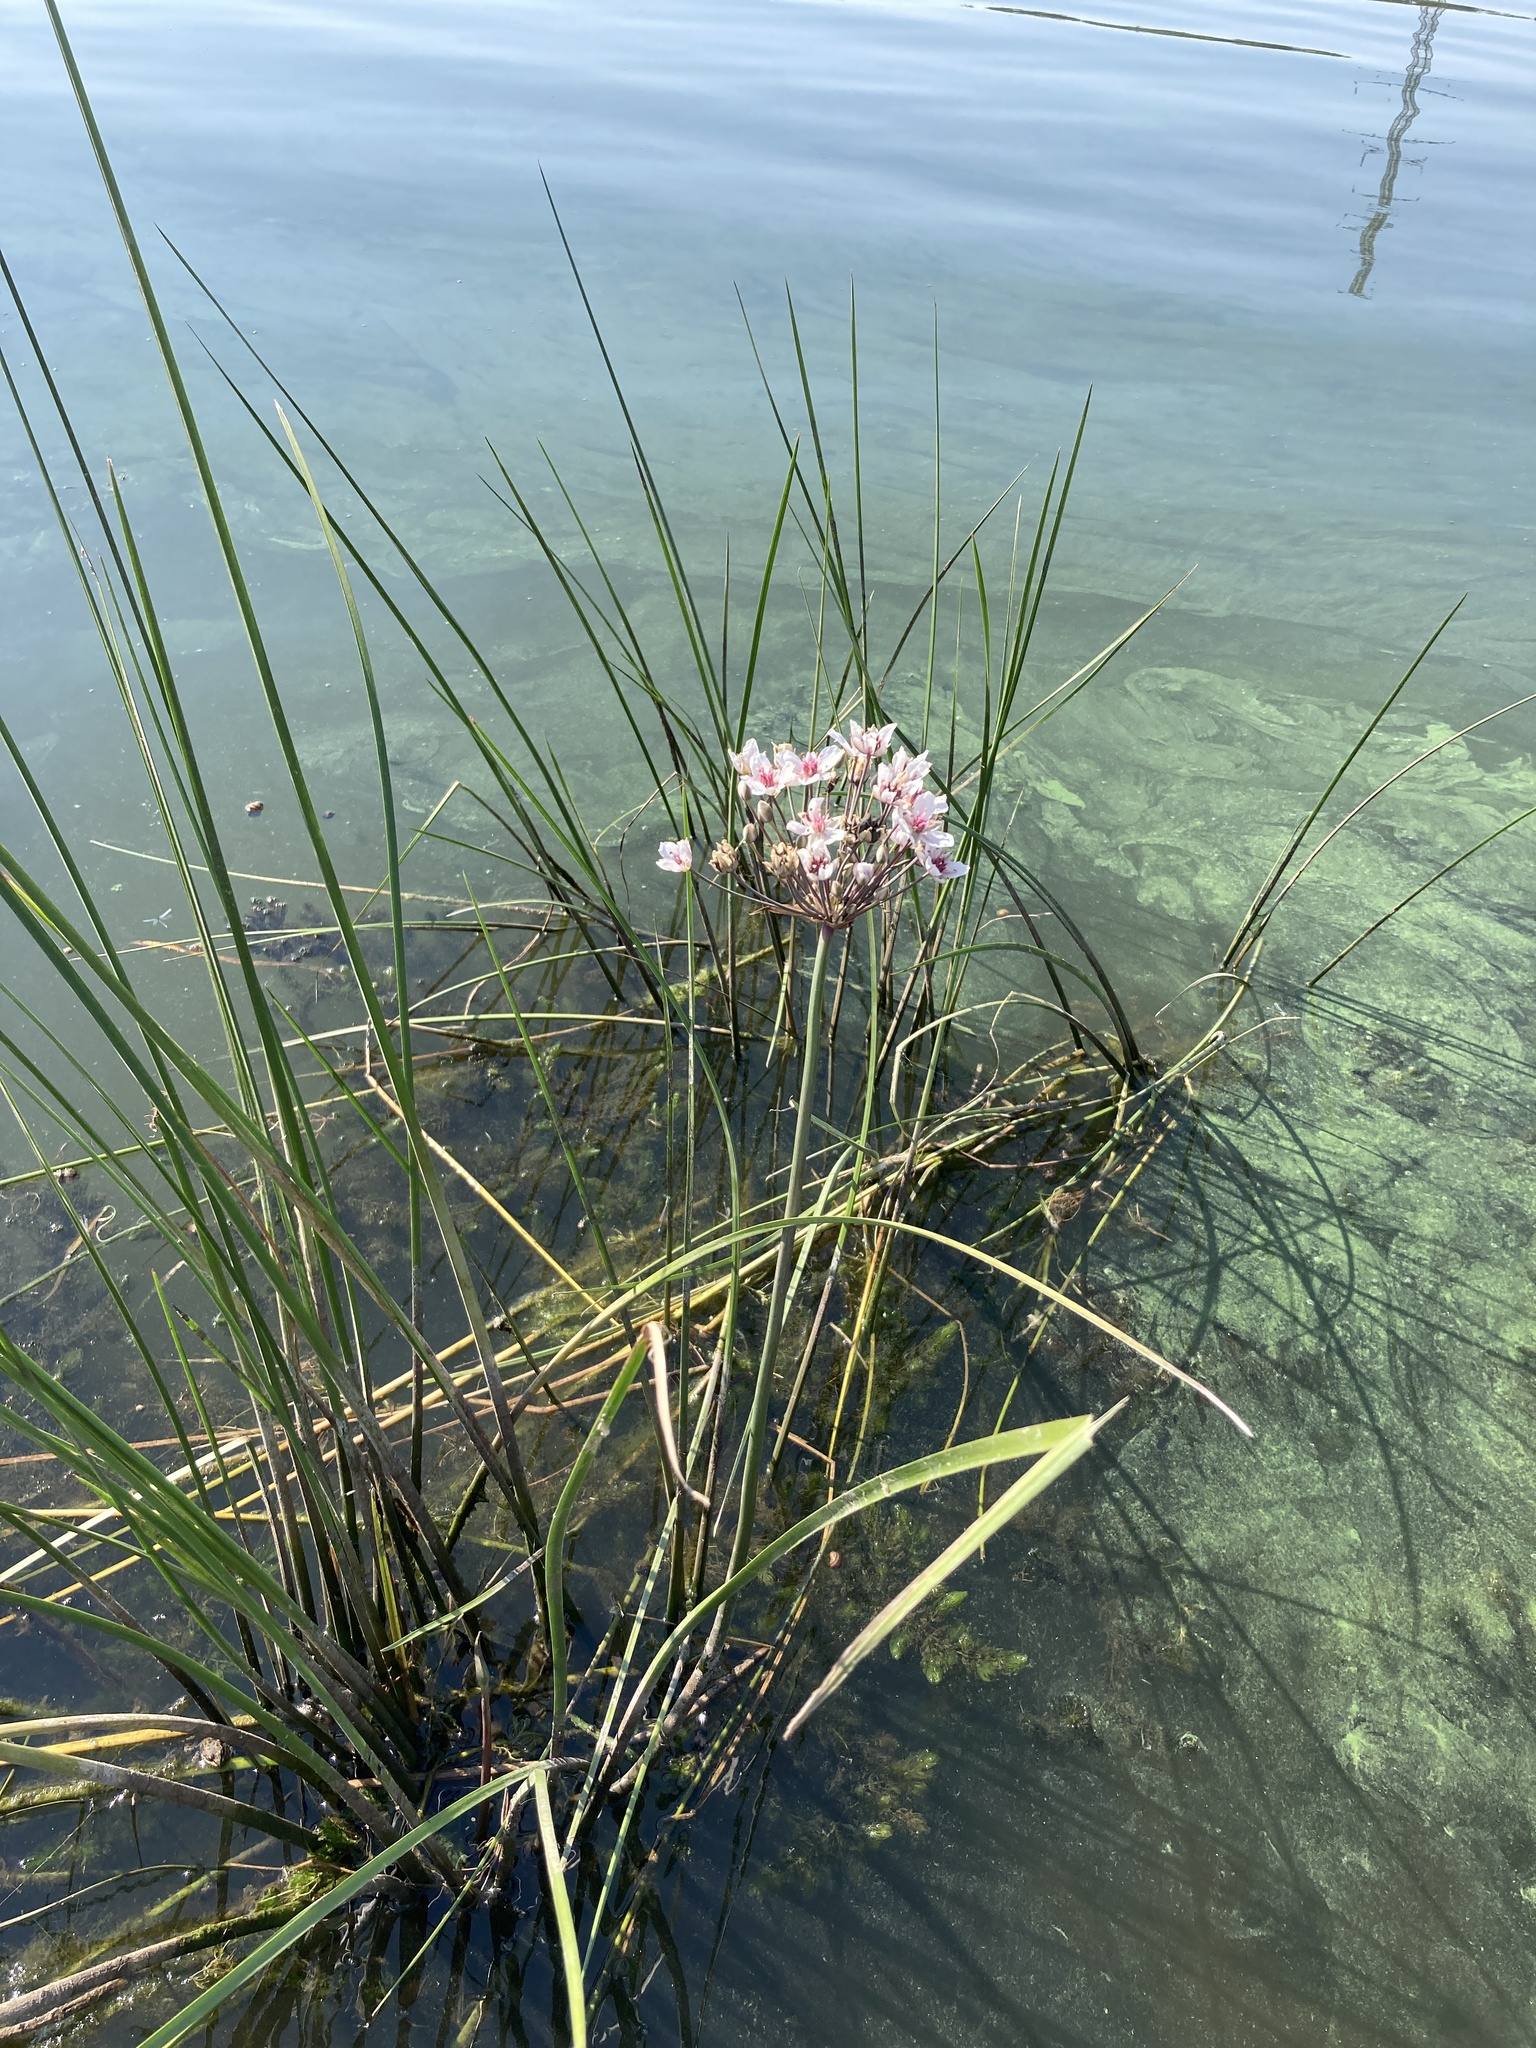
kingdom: Plantae
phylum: Tracheophyta
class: Liliopsida
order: Alismatales
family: Butomaceae
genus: Butomus
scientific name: Butomus umbellatus
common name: Flowering-rush
